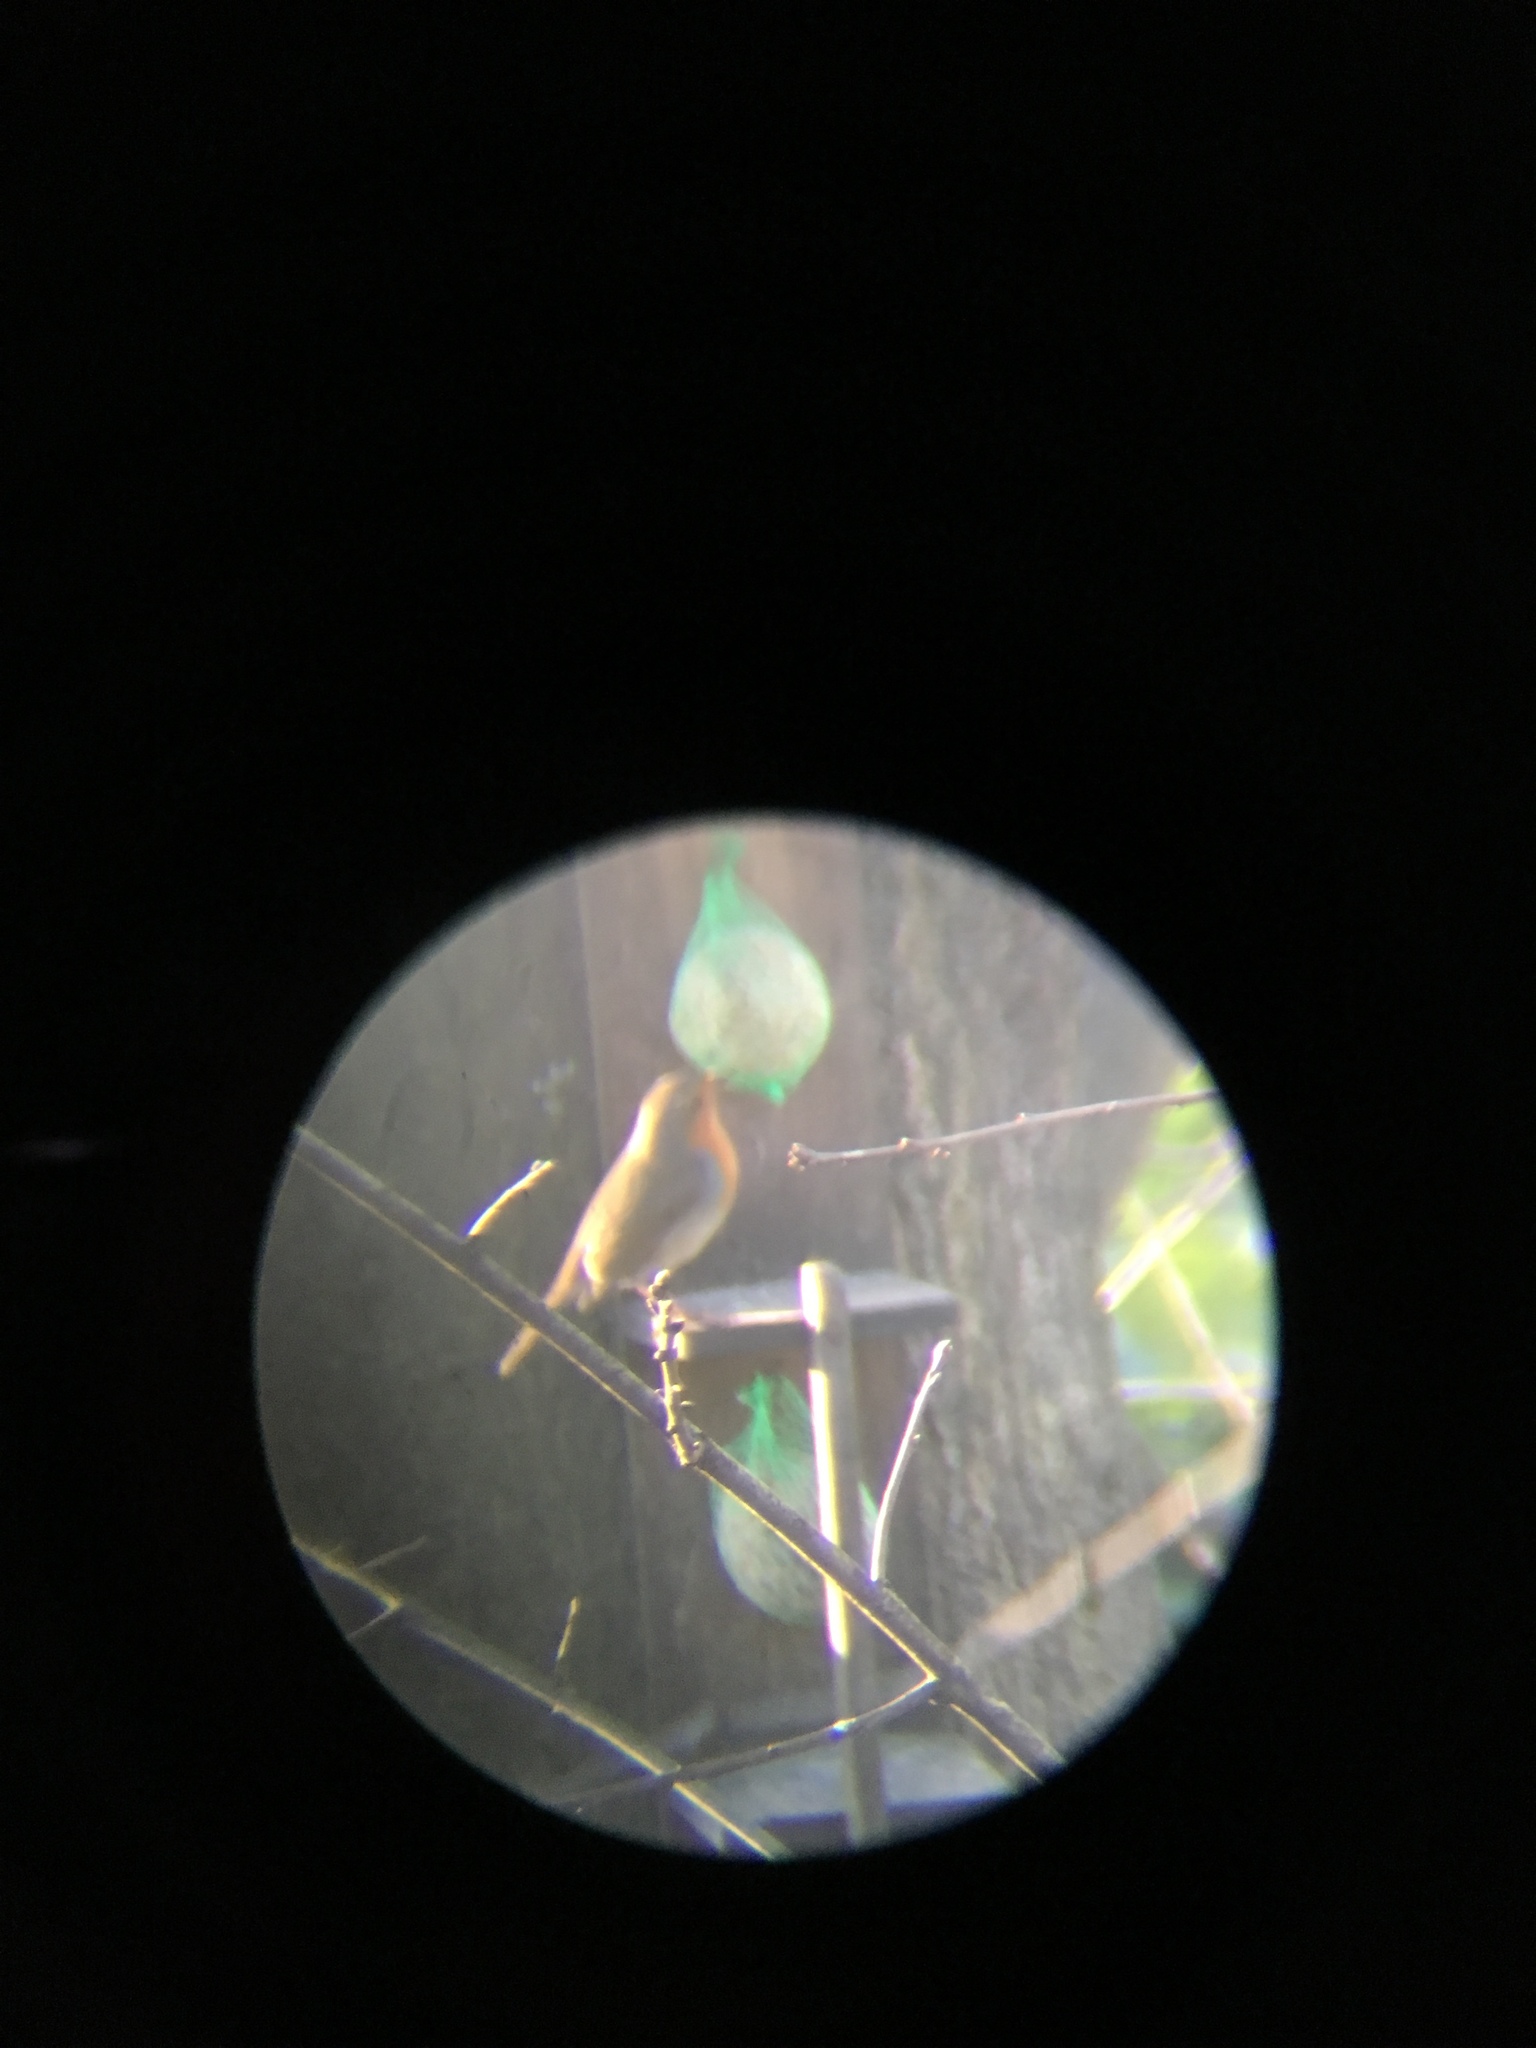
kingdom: Animalia
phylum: Chordata
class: Aves
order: Passeriformes
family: Muscicapidae
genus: Erithacus
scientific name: Erithacus rubecula
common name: European robin
